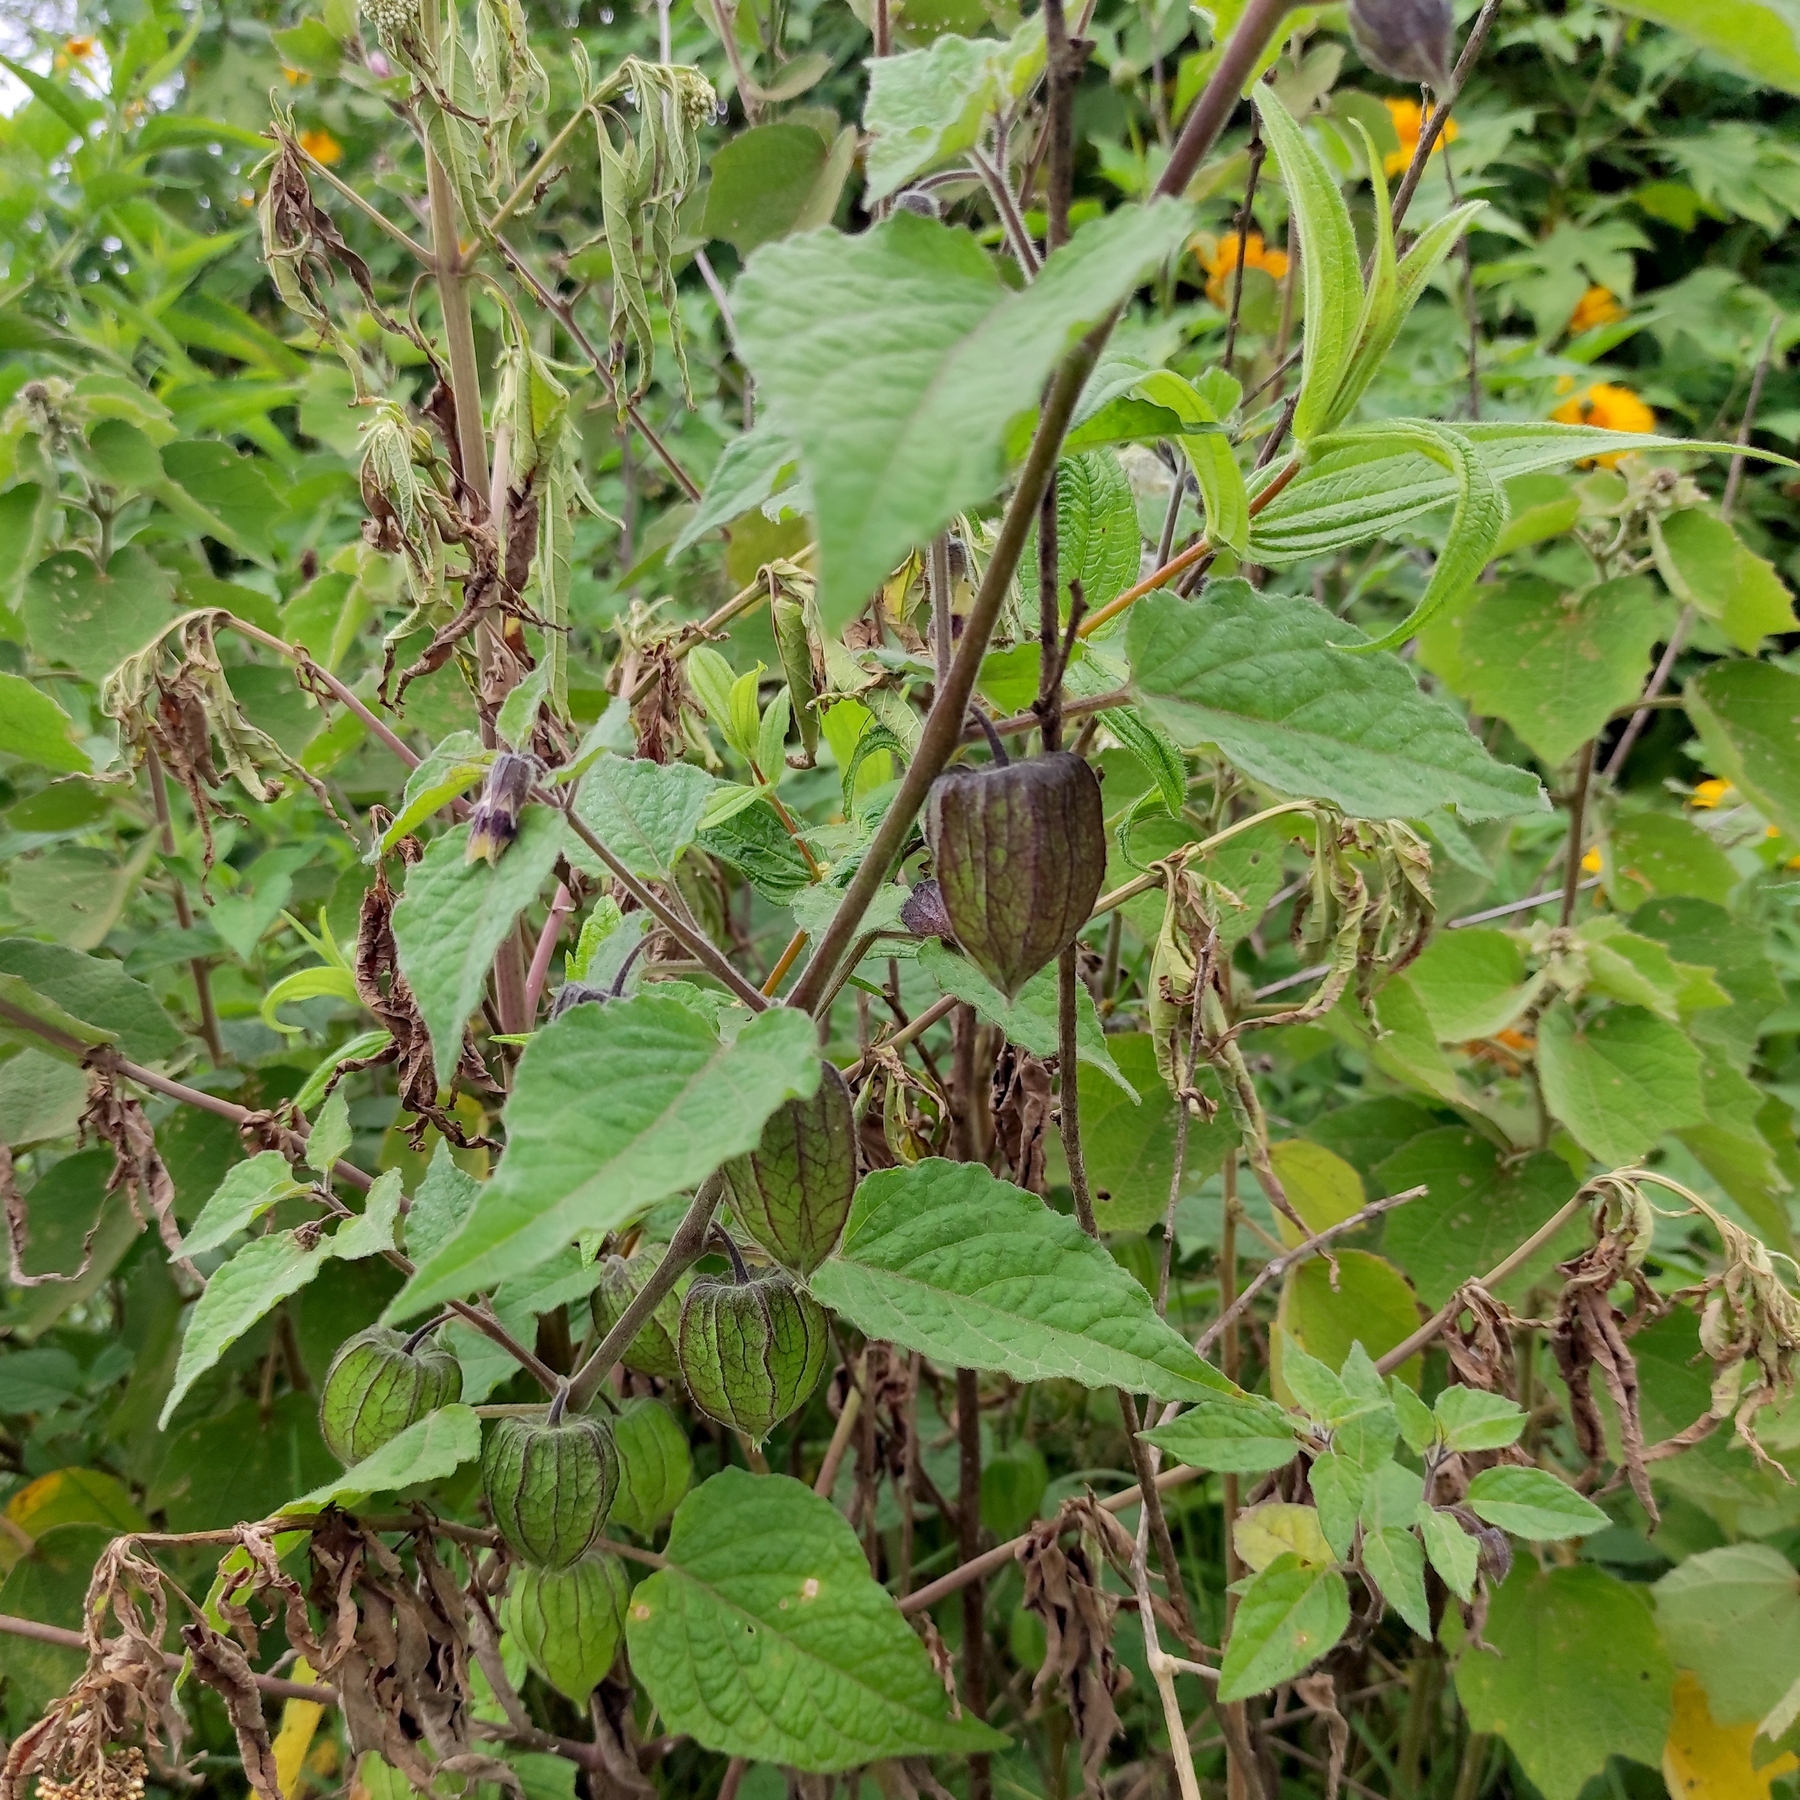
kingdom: Plantae
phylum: Tracheophyta
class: Magnoliopsida
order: Solanales
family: Solanaceae
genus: Physalis
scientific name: Physalis peruviana
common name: Cape-gooseberry
